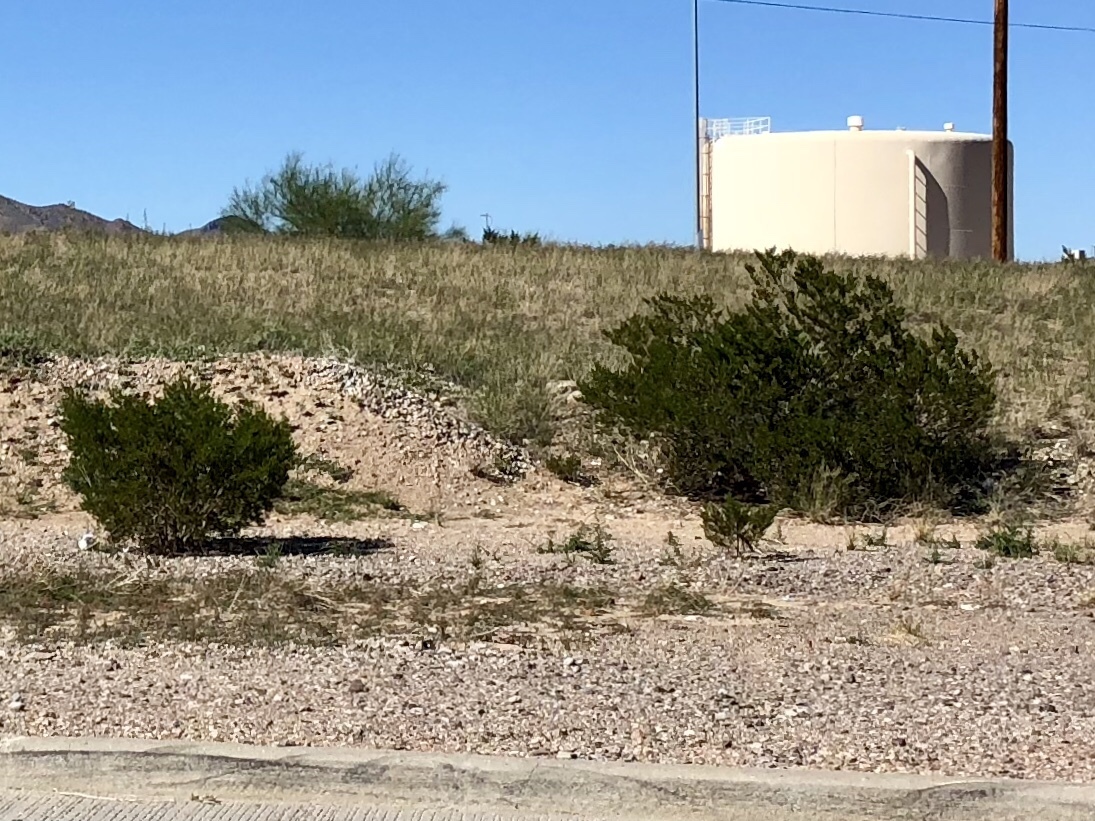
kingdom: Plantae
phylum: Tracheophyta
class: Magnoliopsida
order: Zygophyllales
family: Zygophyllaceae
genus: Larrea
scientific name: Larrea tridentata
